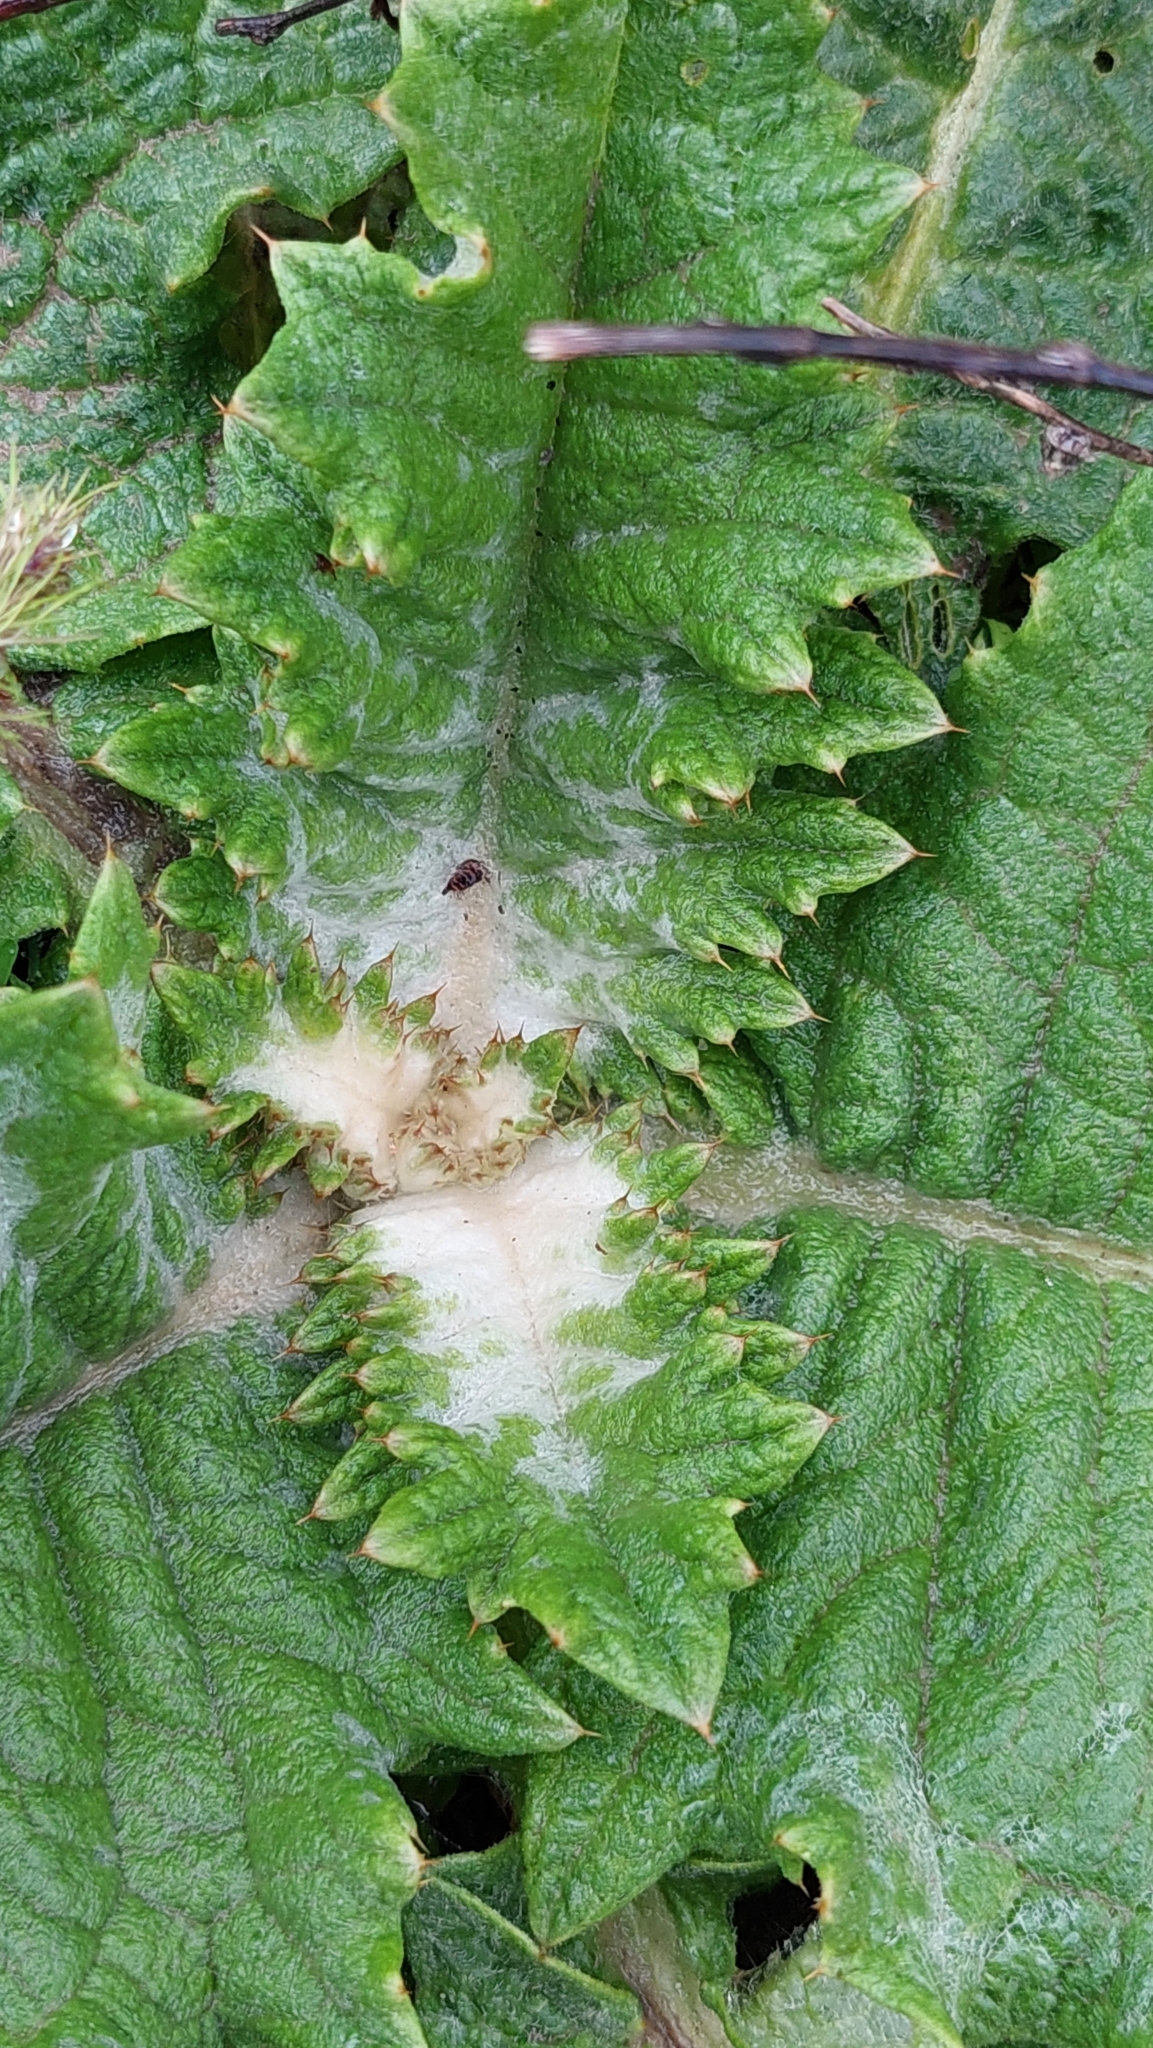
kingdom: Plantae
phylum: Tracheophyta
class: Magnoliopsida
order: Asterales
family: Asteraceae
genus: Onopordum
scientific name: Onopordum acanthium
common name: Scotch thistle
